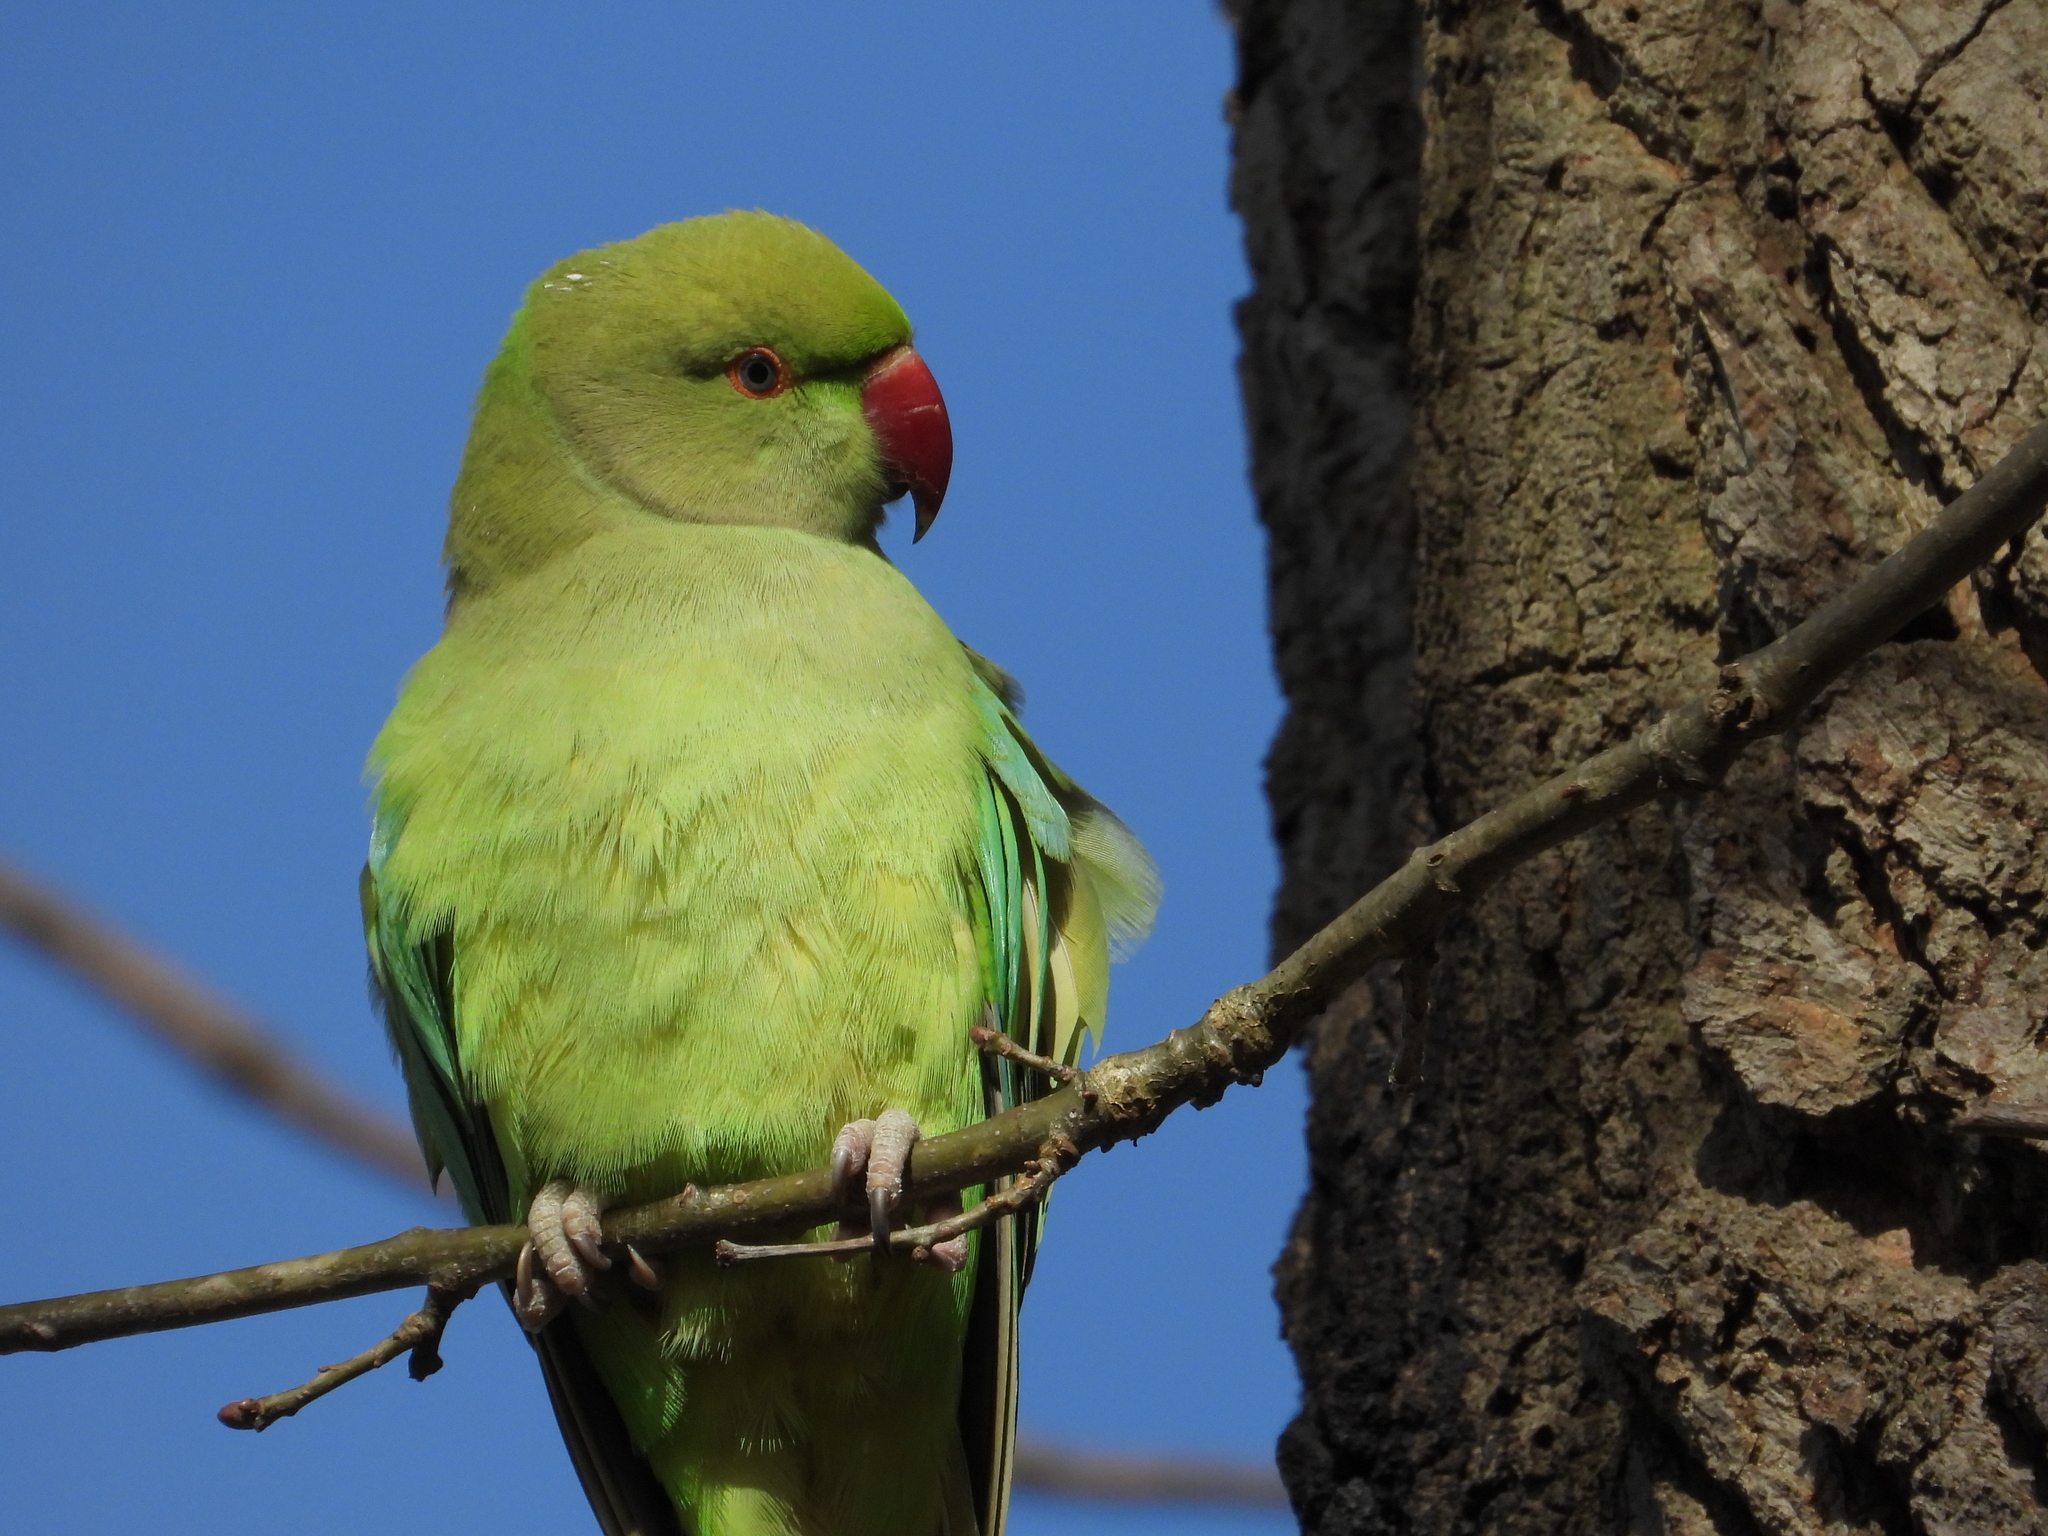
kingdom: Animalia
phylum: Chordata
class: Aves
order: Psittaciformes
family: Psittacidae
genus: Psittacula
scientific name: Psittacula krameri
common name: Rose-ringed parakeet
